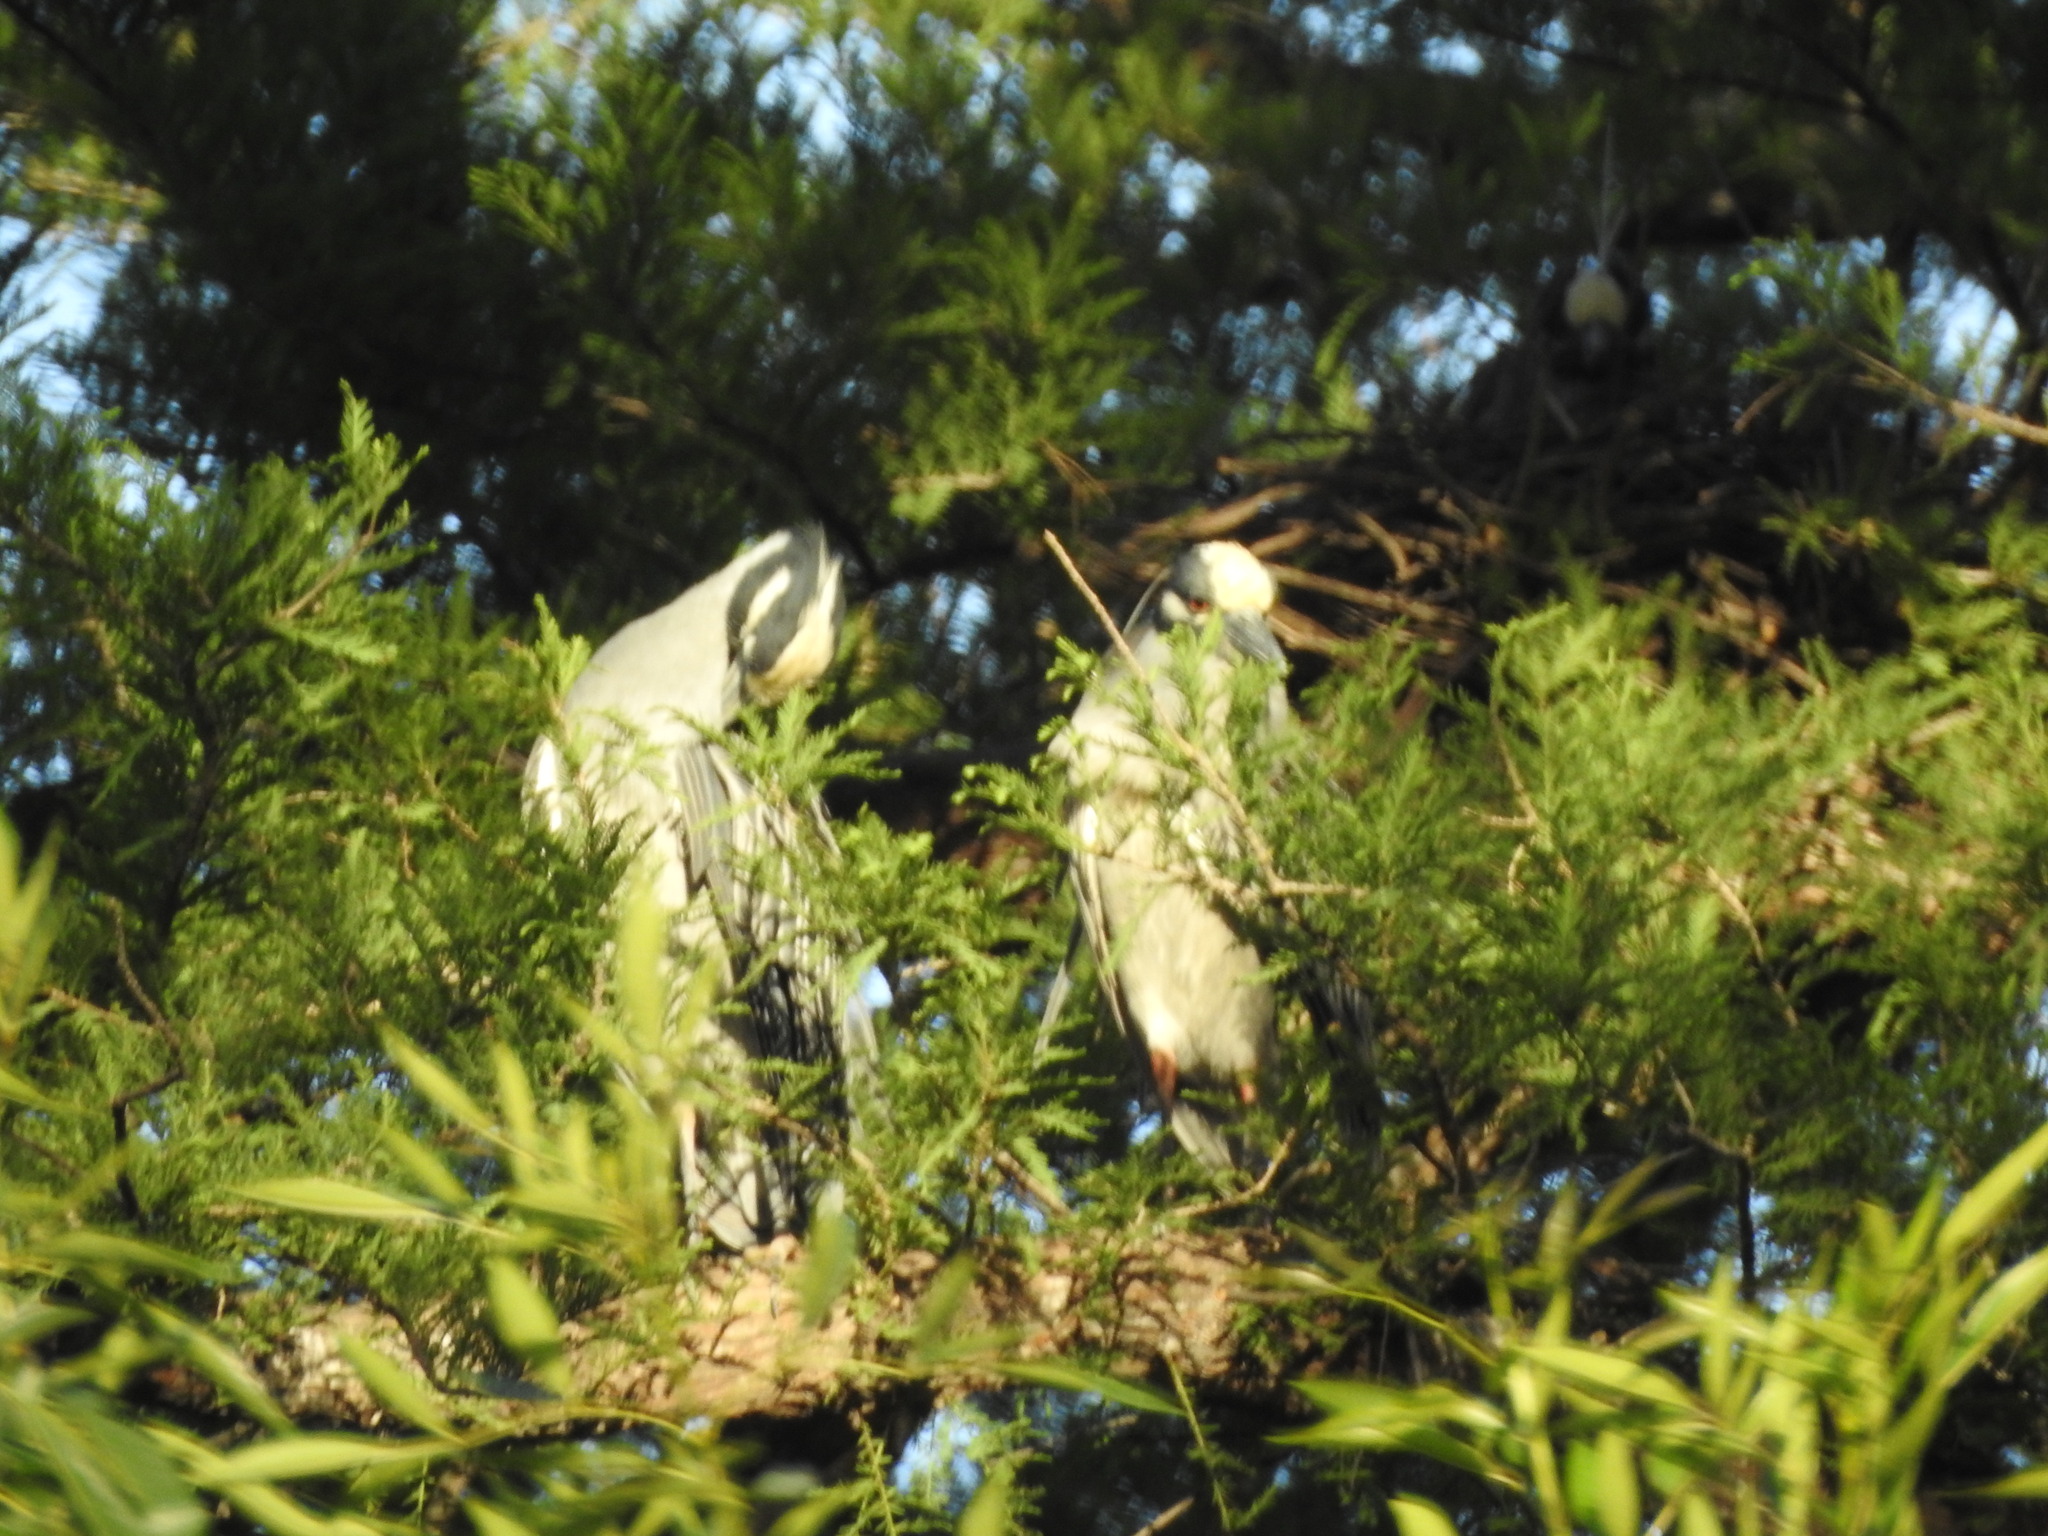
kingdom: Animalia
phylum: Chordata
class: Aves
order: Pelecaniformes
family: Ardeidae
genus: Nyctanassa
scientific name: Nyctanassa violacea
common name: Yellow-crowned night heron
